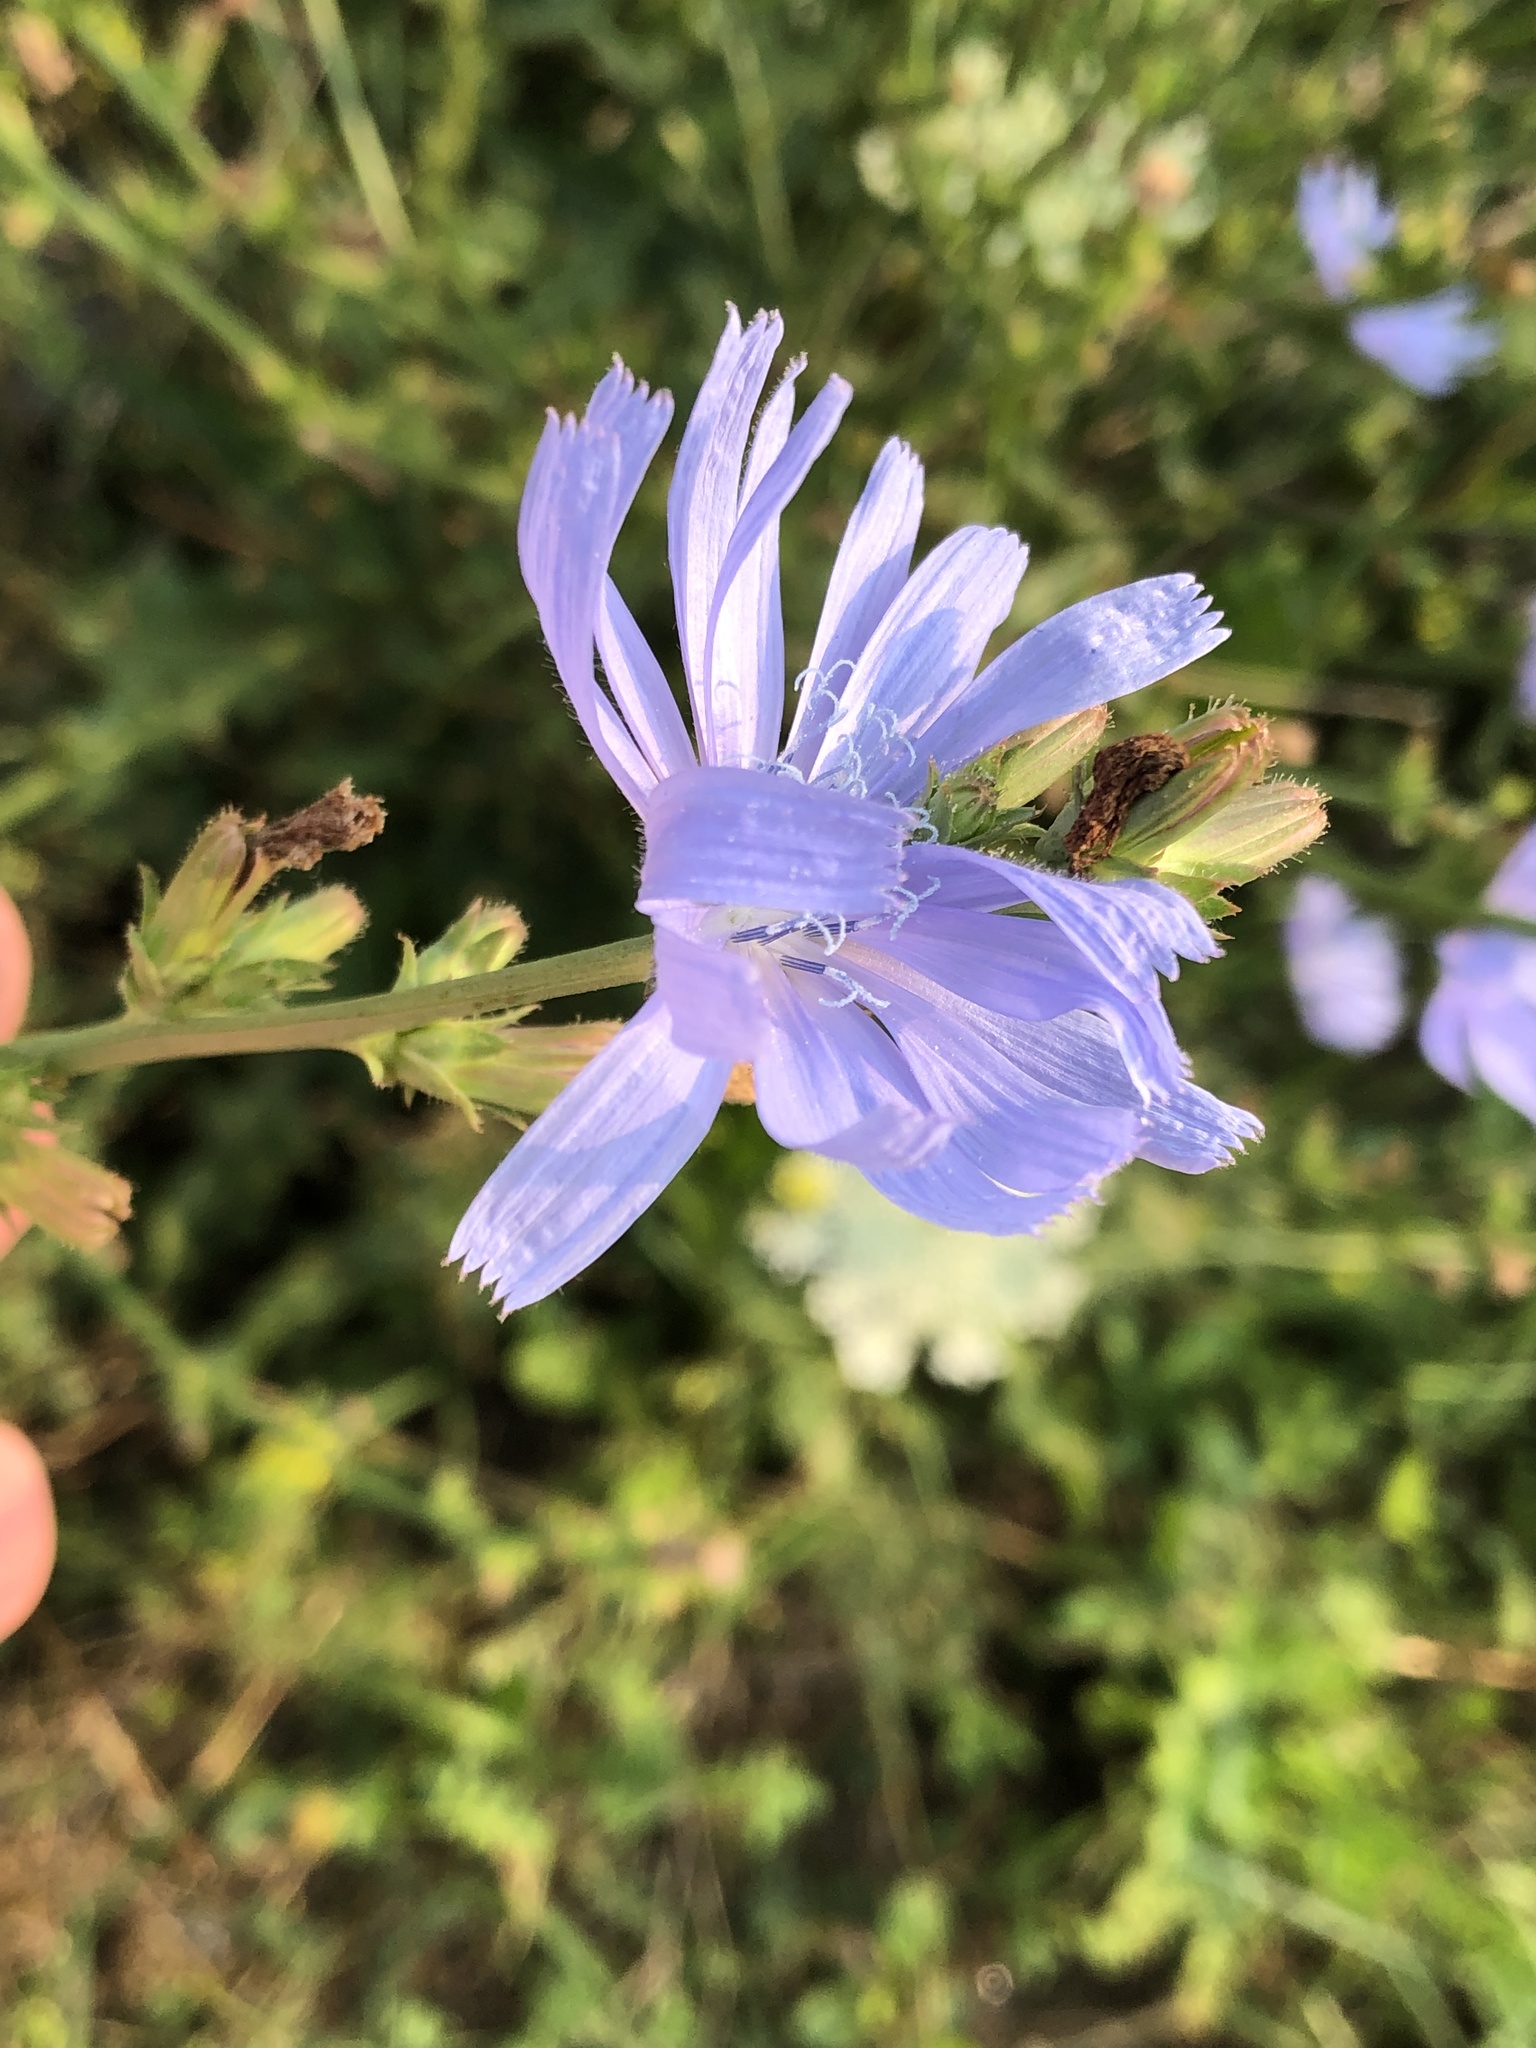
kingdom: Plantae
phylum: Tracheophyta
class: Magnoliopsida
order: Asterales
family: Asteraceae
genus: Cichorium
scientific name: Cichorium intybus
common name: Chicory
